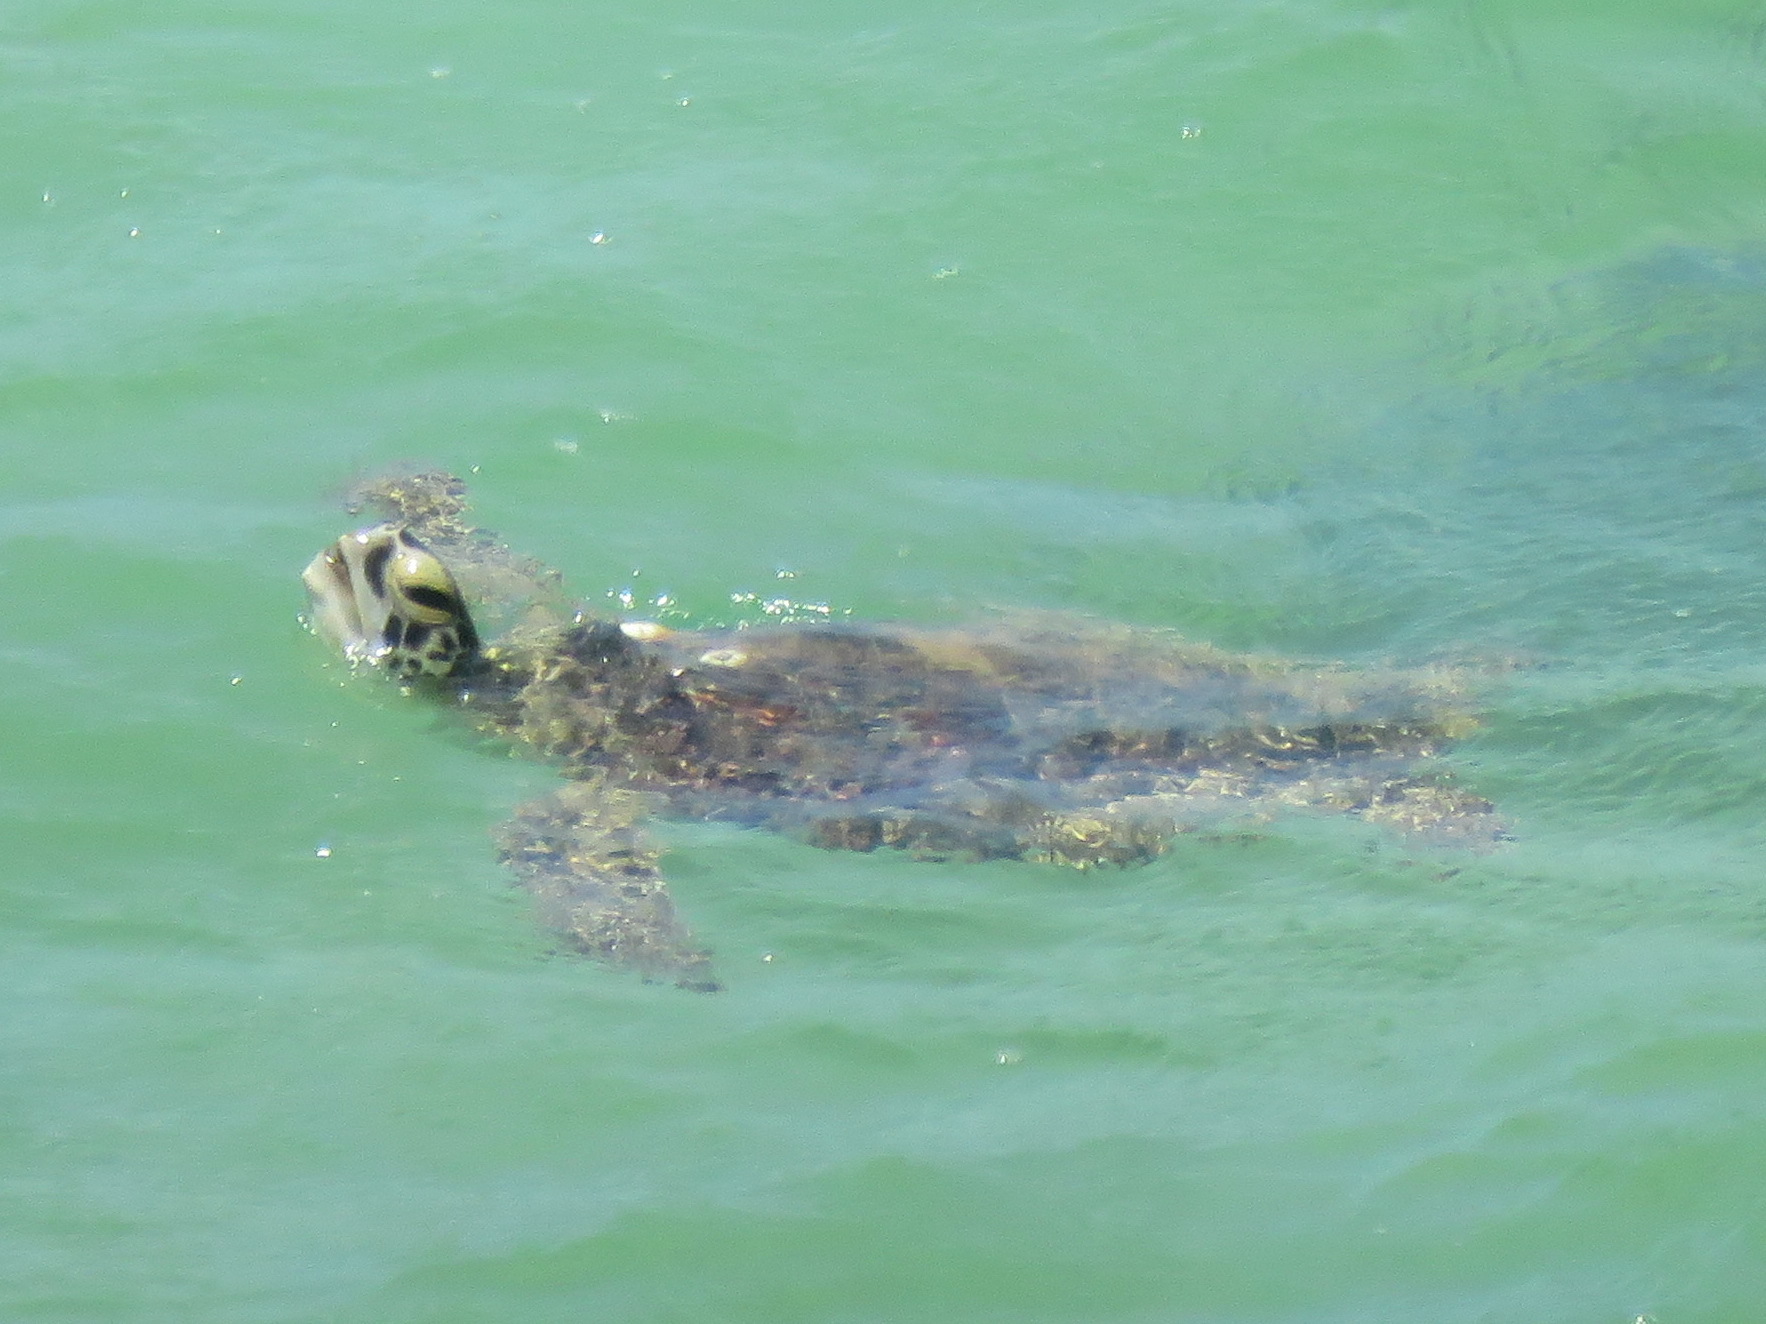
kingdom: Animalia
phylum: Chordata
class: Testudines
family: Cheloniidae
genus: Chelonia
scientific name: Chelonia mydas
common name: Green turtle
